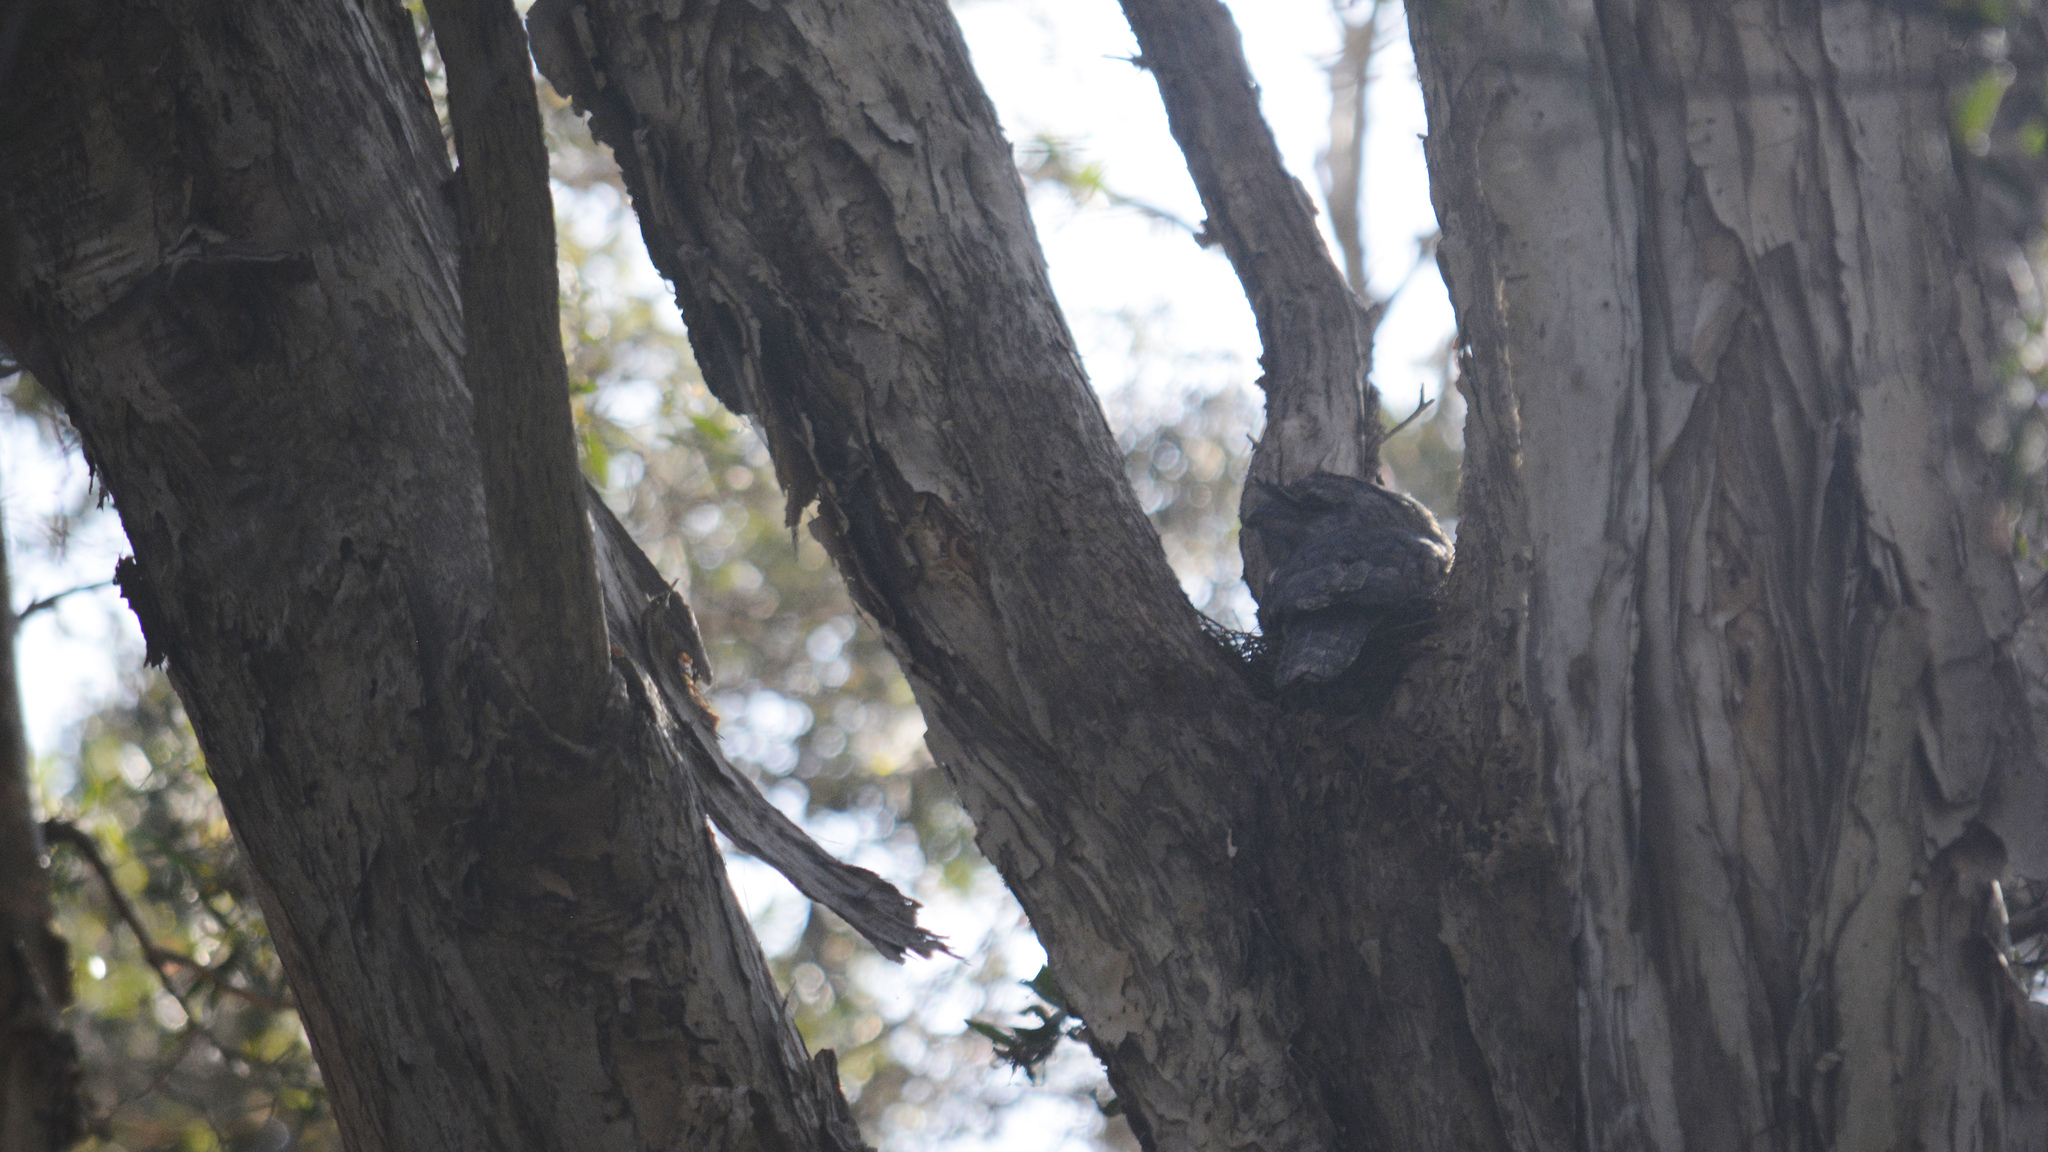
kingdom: Animalia
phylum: Chordata
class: Aves
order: Caprimulgiformes
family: Podargidae
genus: Podargus
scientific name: Podargus strigoides
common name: Tawny frogmouth
